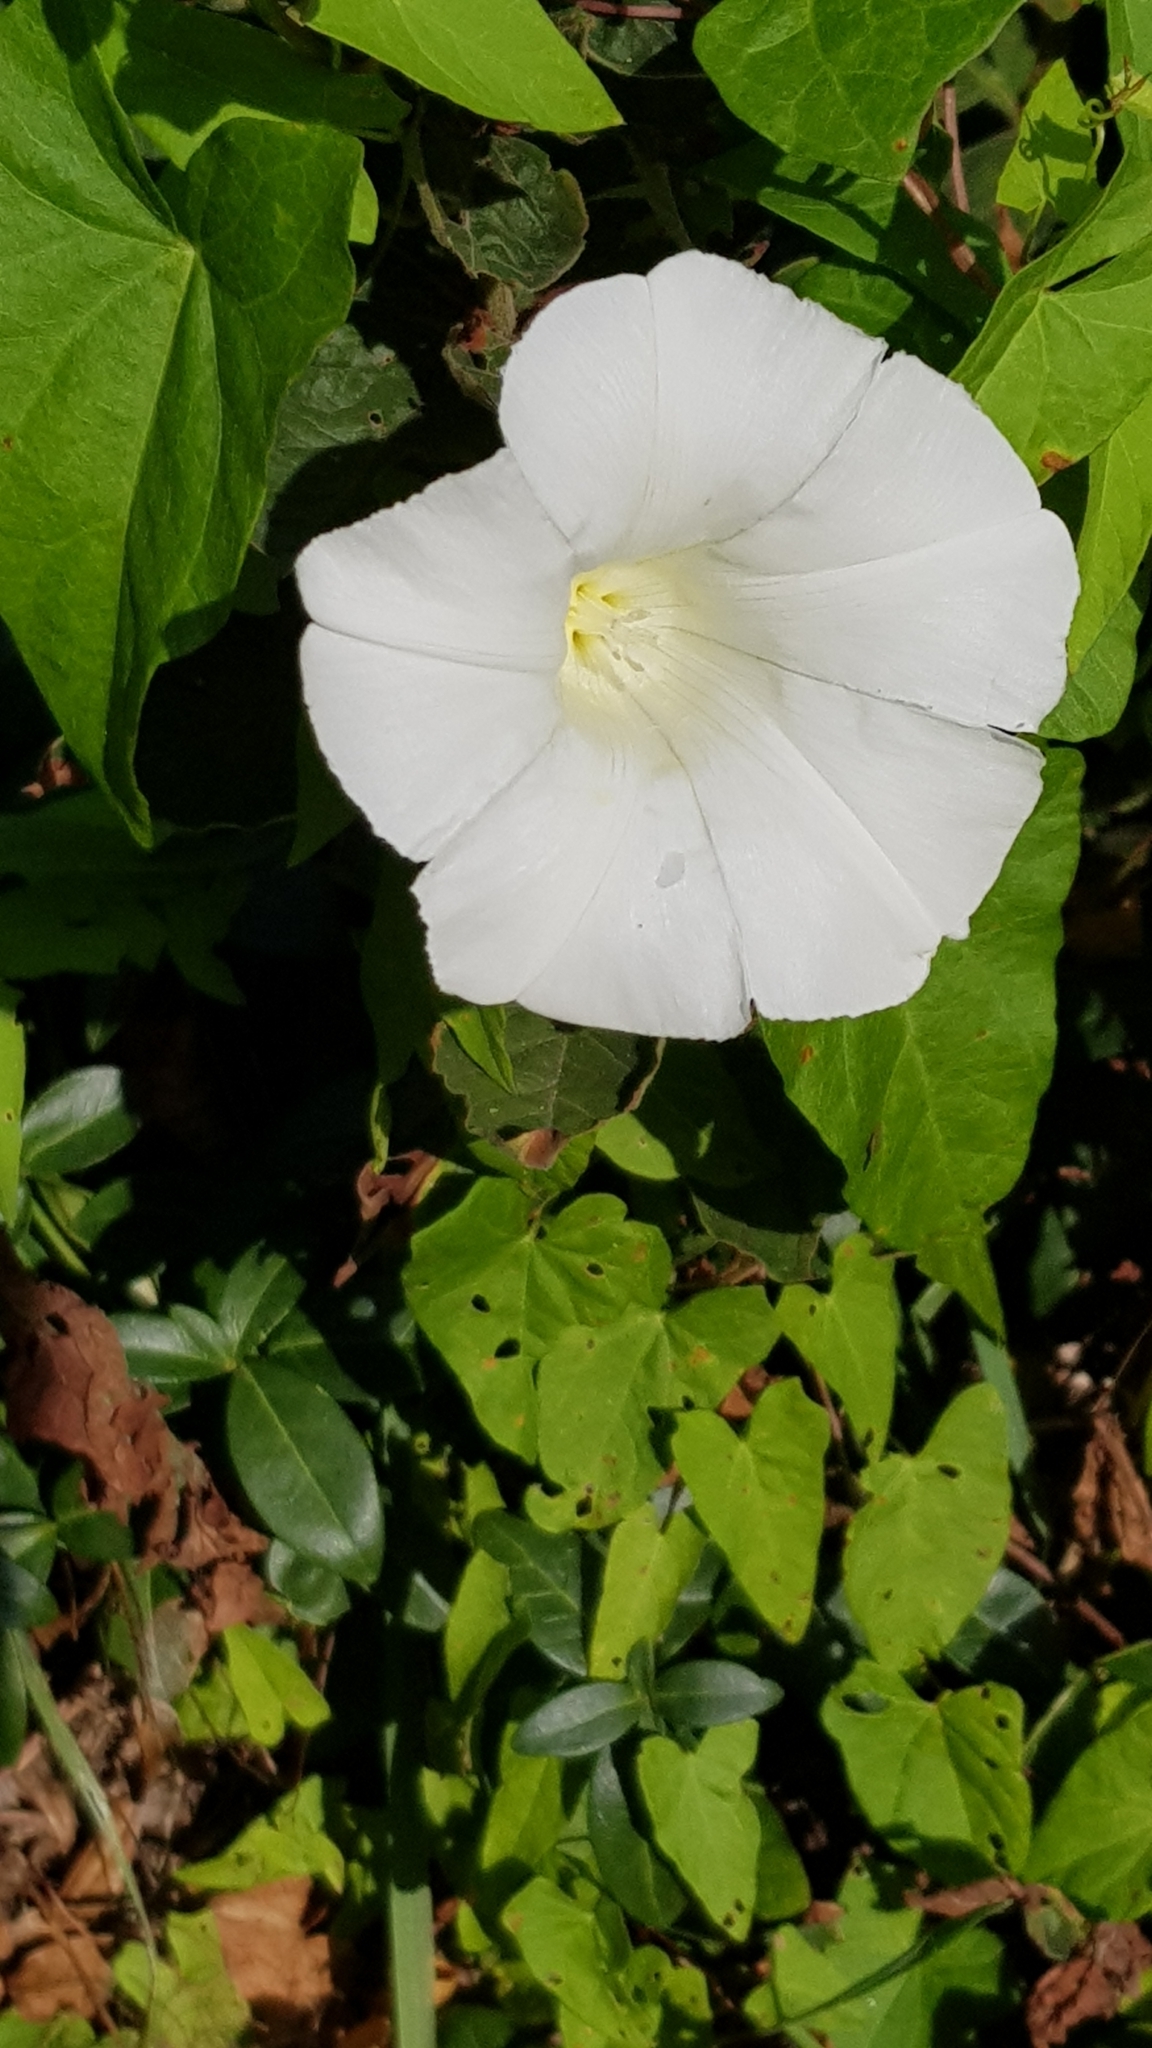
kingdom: Plantae
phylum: Tracheophyta
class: Magnoliopsida
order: Solanales
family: Convolvulaceae
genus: Calystegia
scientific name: Calystegia sepium
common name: Hedge bindweed
